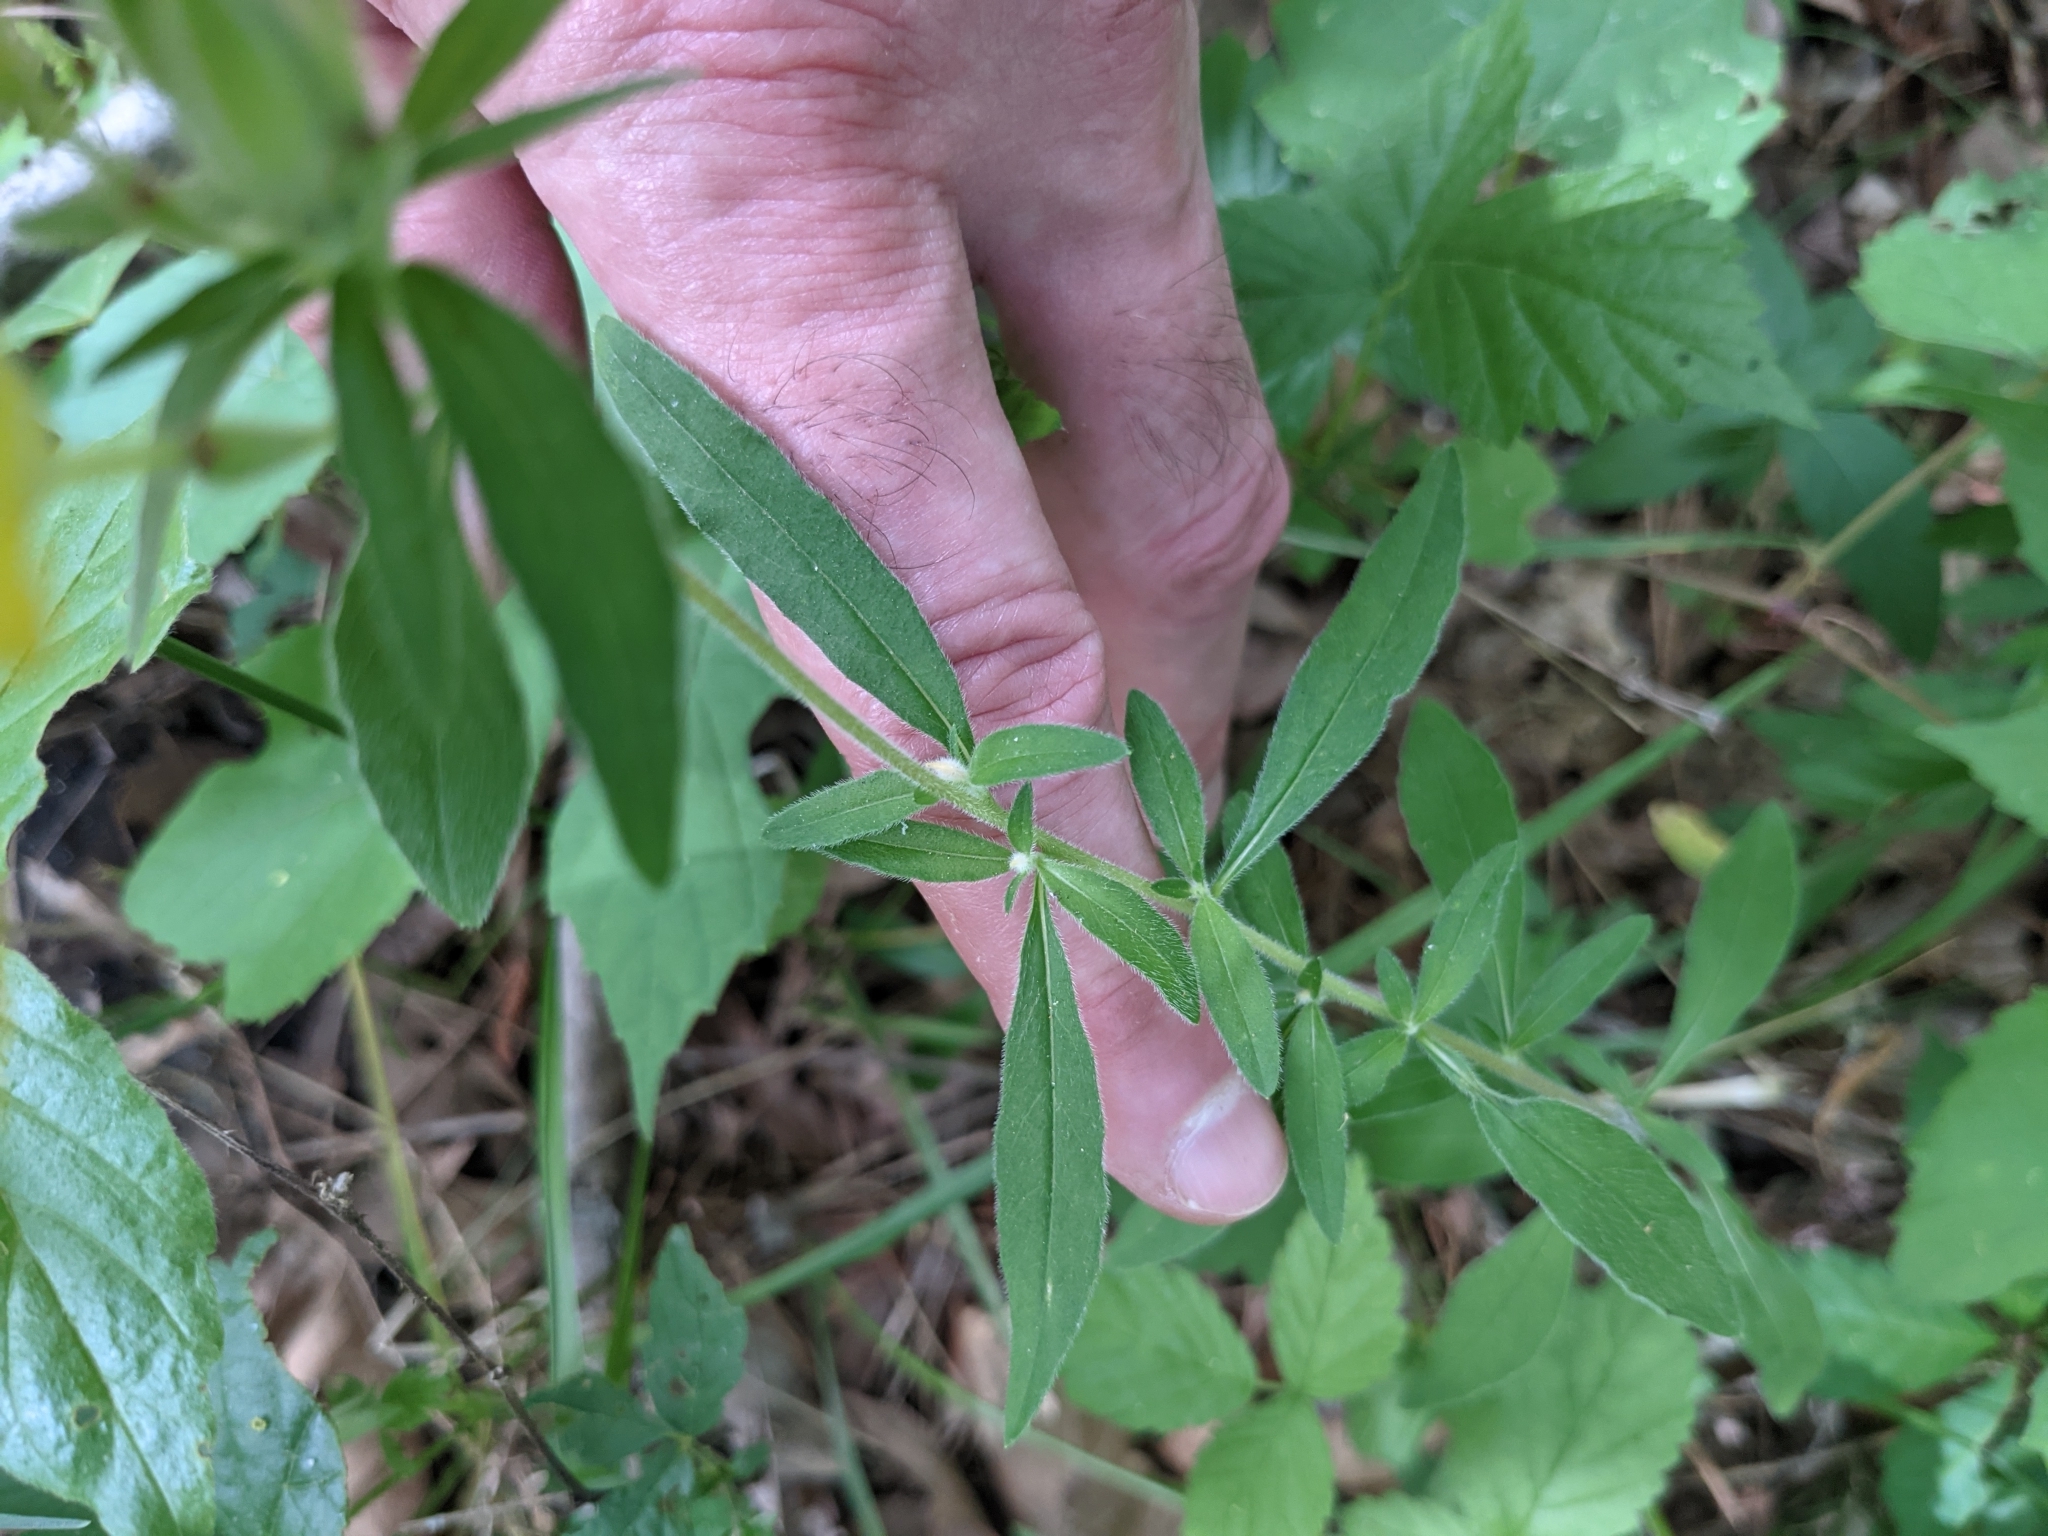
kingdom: Plantae
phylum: Tracheophyta
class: Magnoliopsida
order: Myrtales
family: Onagraceae
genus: Oenothera
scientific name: Oenothera fruticosa
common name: Southern sundrops
